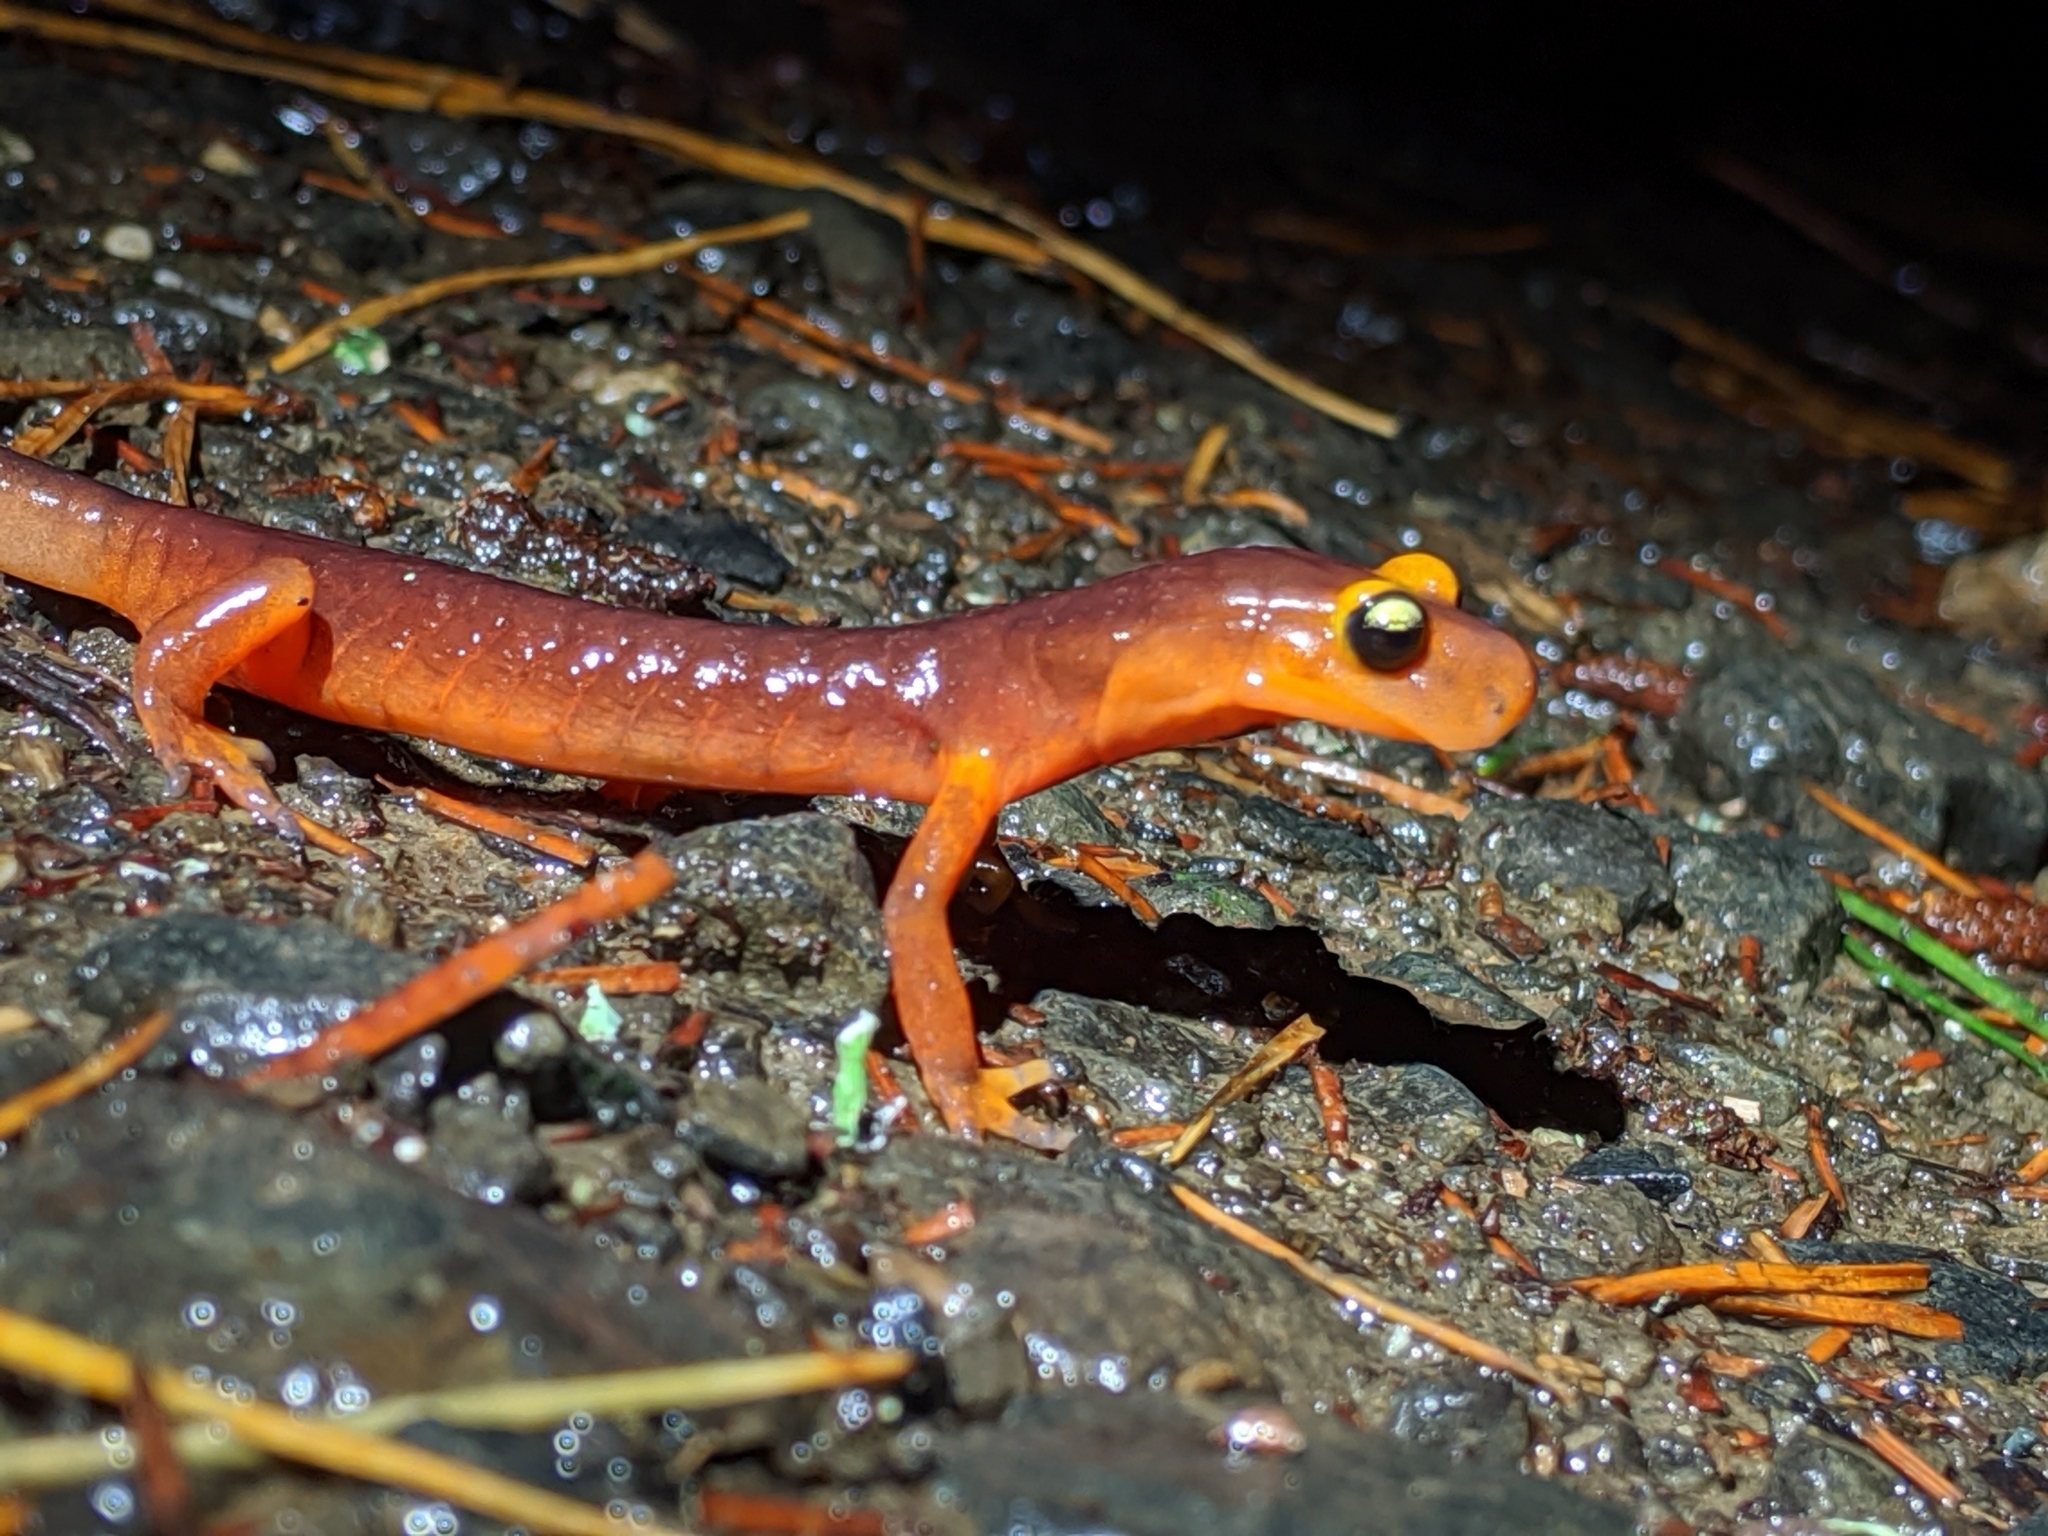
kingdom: Animalia
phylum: Chordata
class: Amphibia
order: Caudata
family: Plethodontidae
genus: Ensatina
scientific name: Ensatina eschscholtzii
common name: Ensatina
